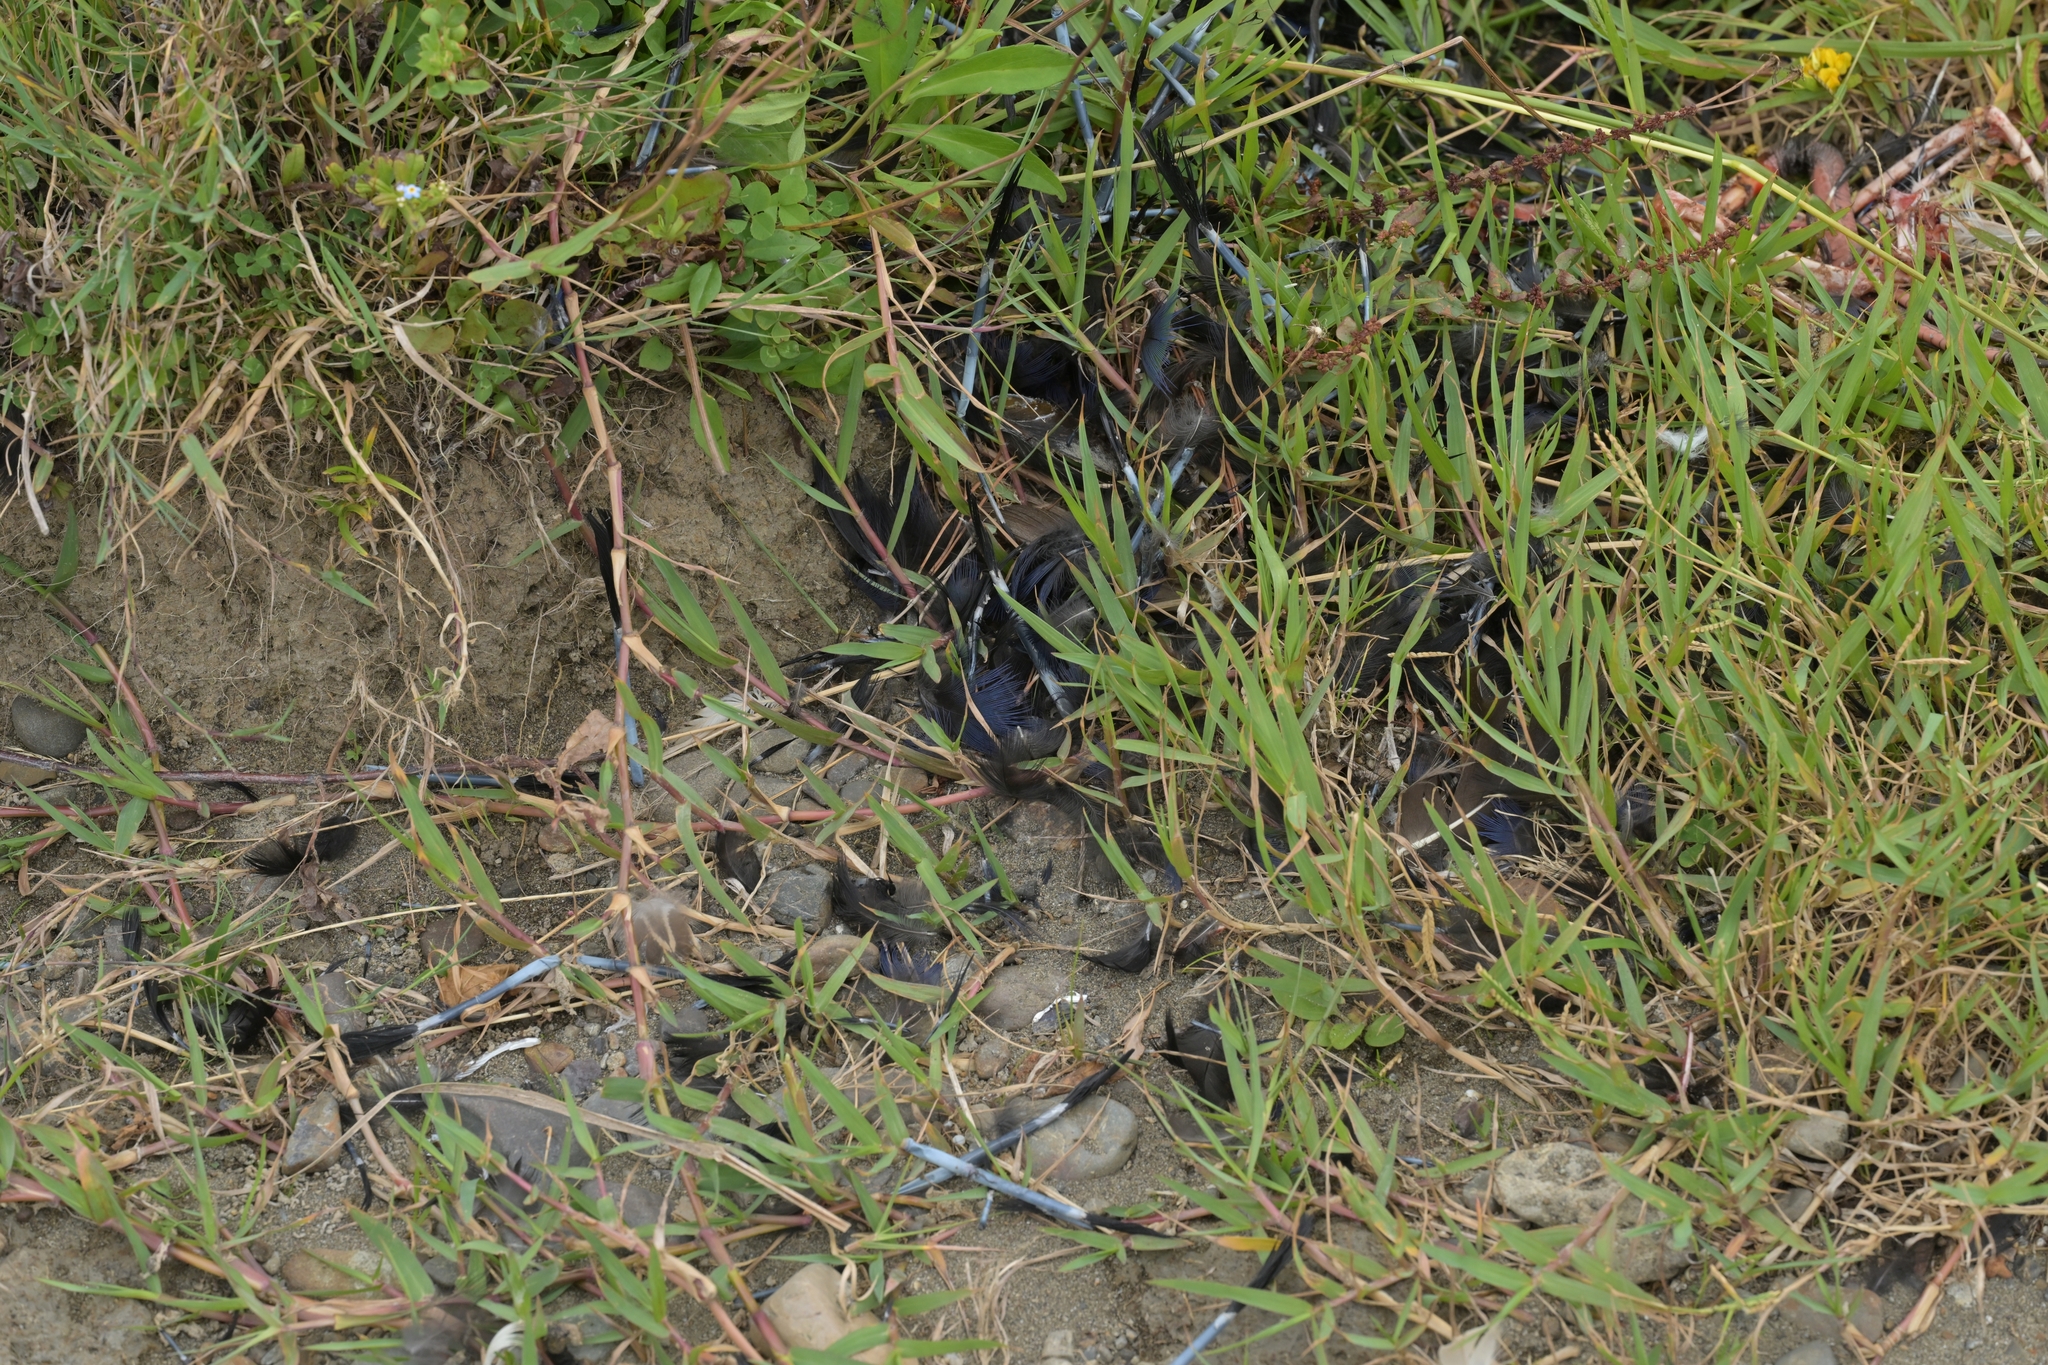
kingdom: Animalia
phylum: Chordata
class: Aves
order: Gruiformes
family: Rallidae
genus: Porphyrio
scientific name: Porphyrio melanotus
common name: Australasian swamphen
